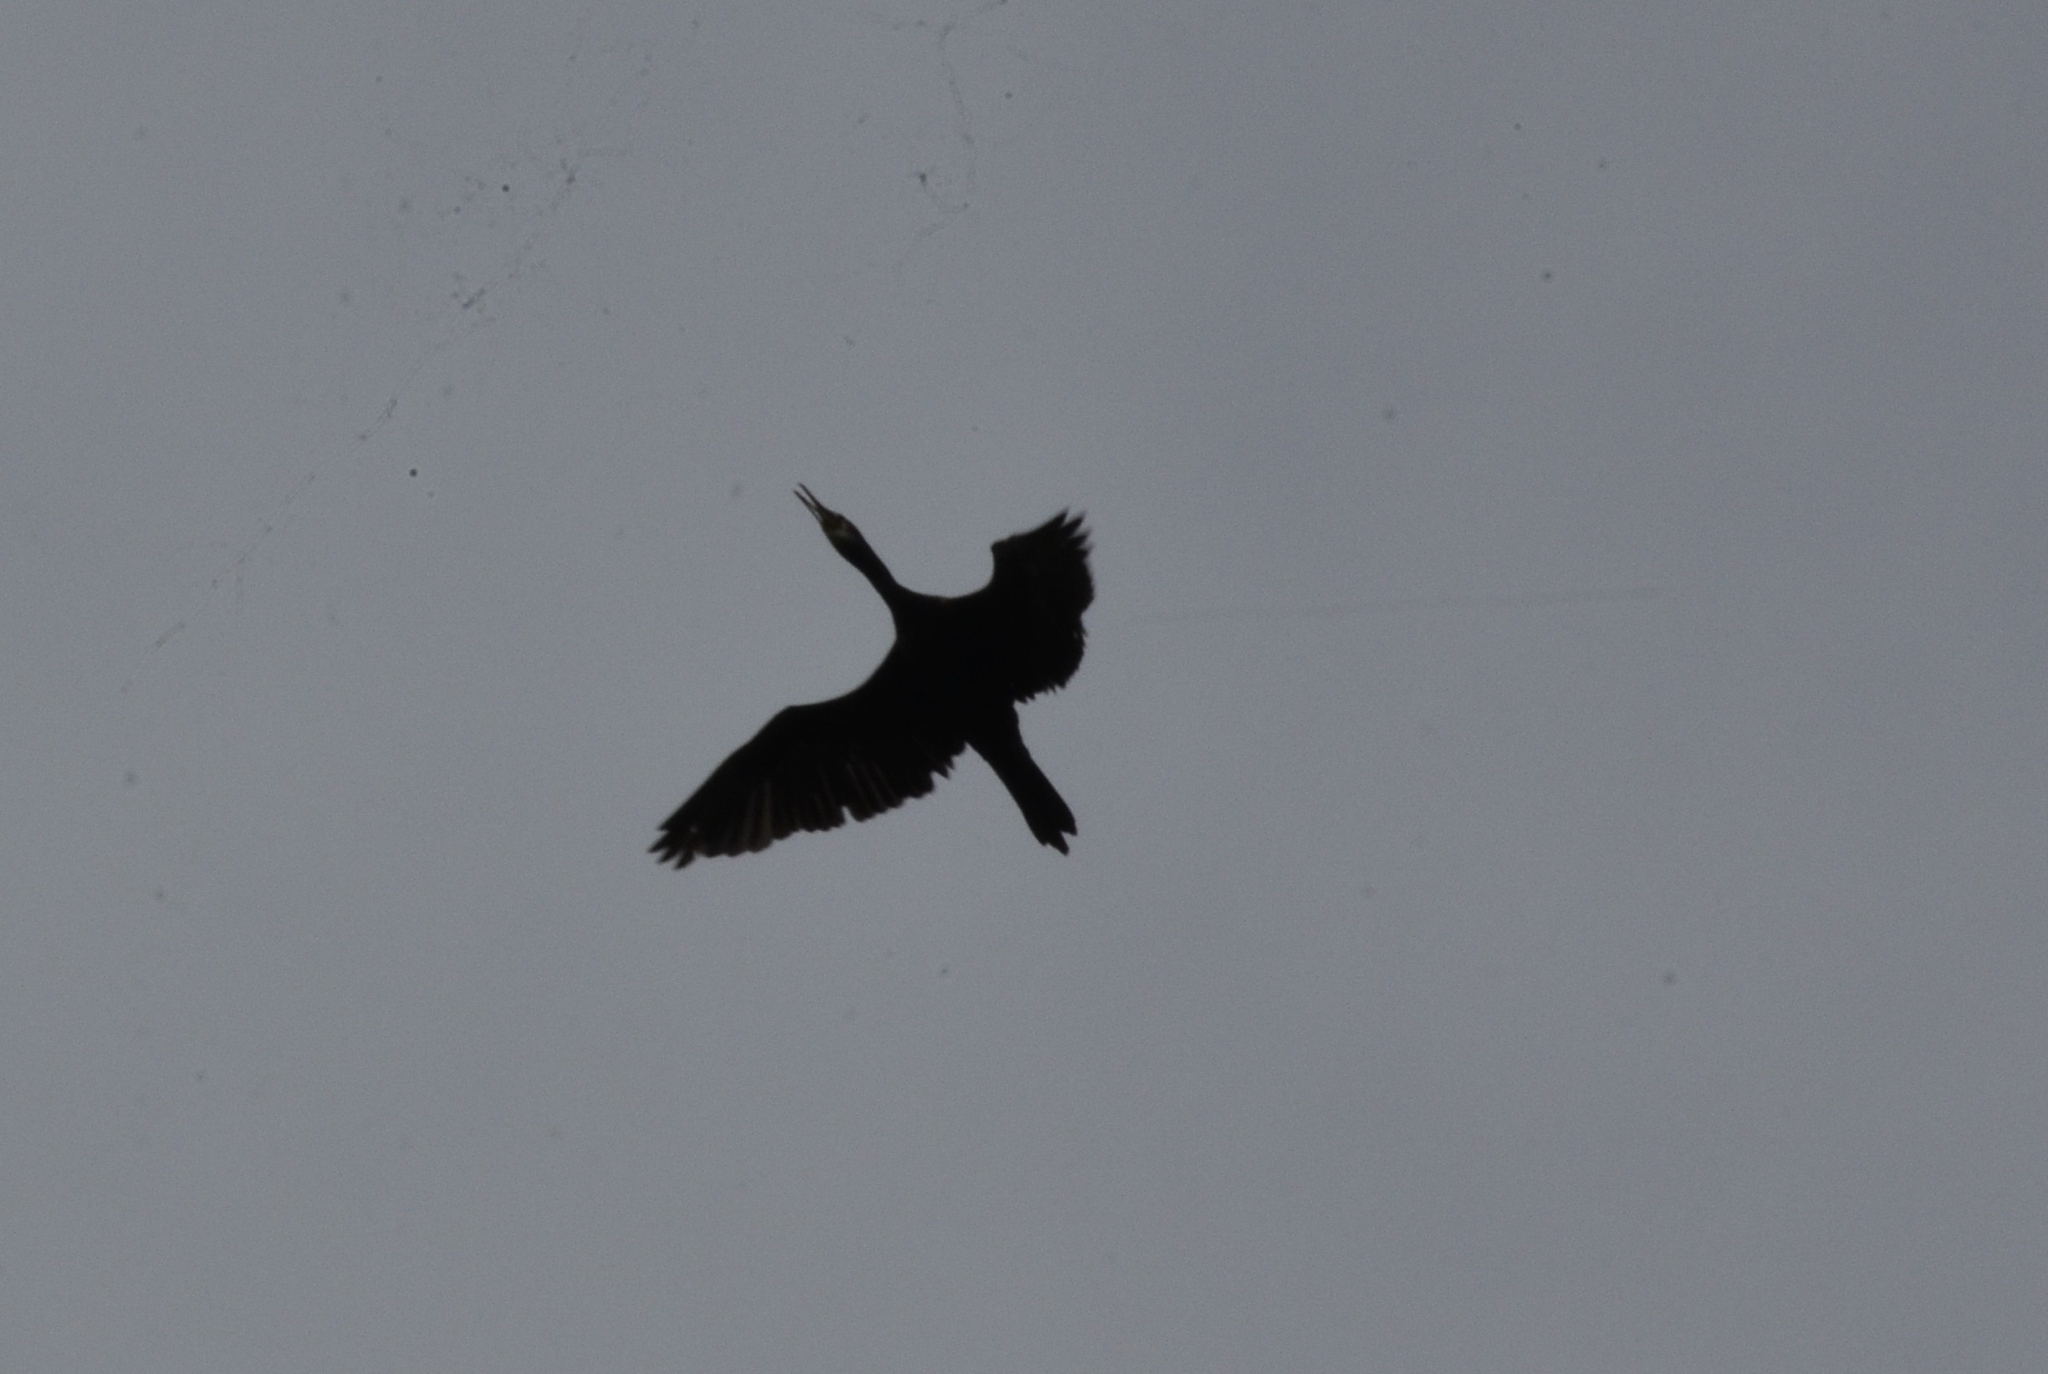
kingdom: Animalia
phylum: Chordata
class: Aves
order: Suliformes
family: Phalacrocoracidae
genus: Microcarbo
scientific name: Microcarbo niger
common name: Little cormorant
